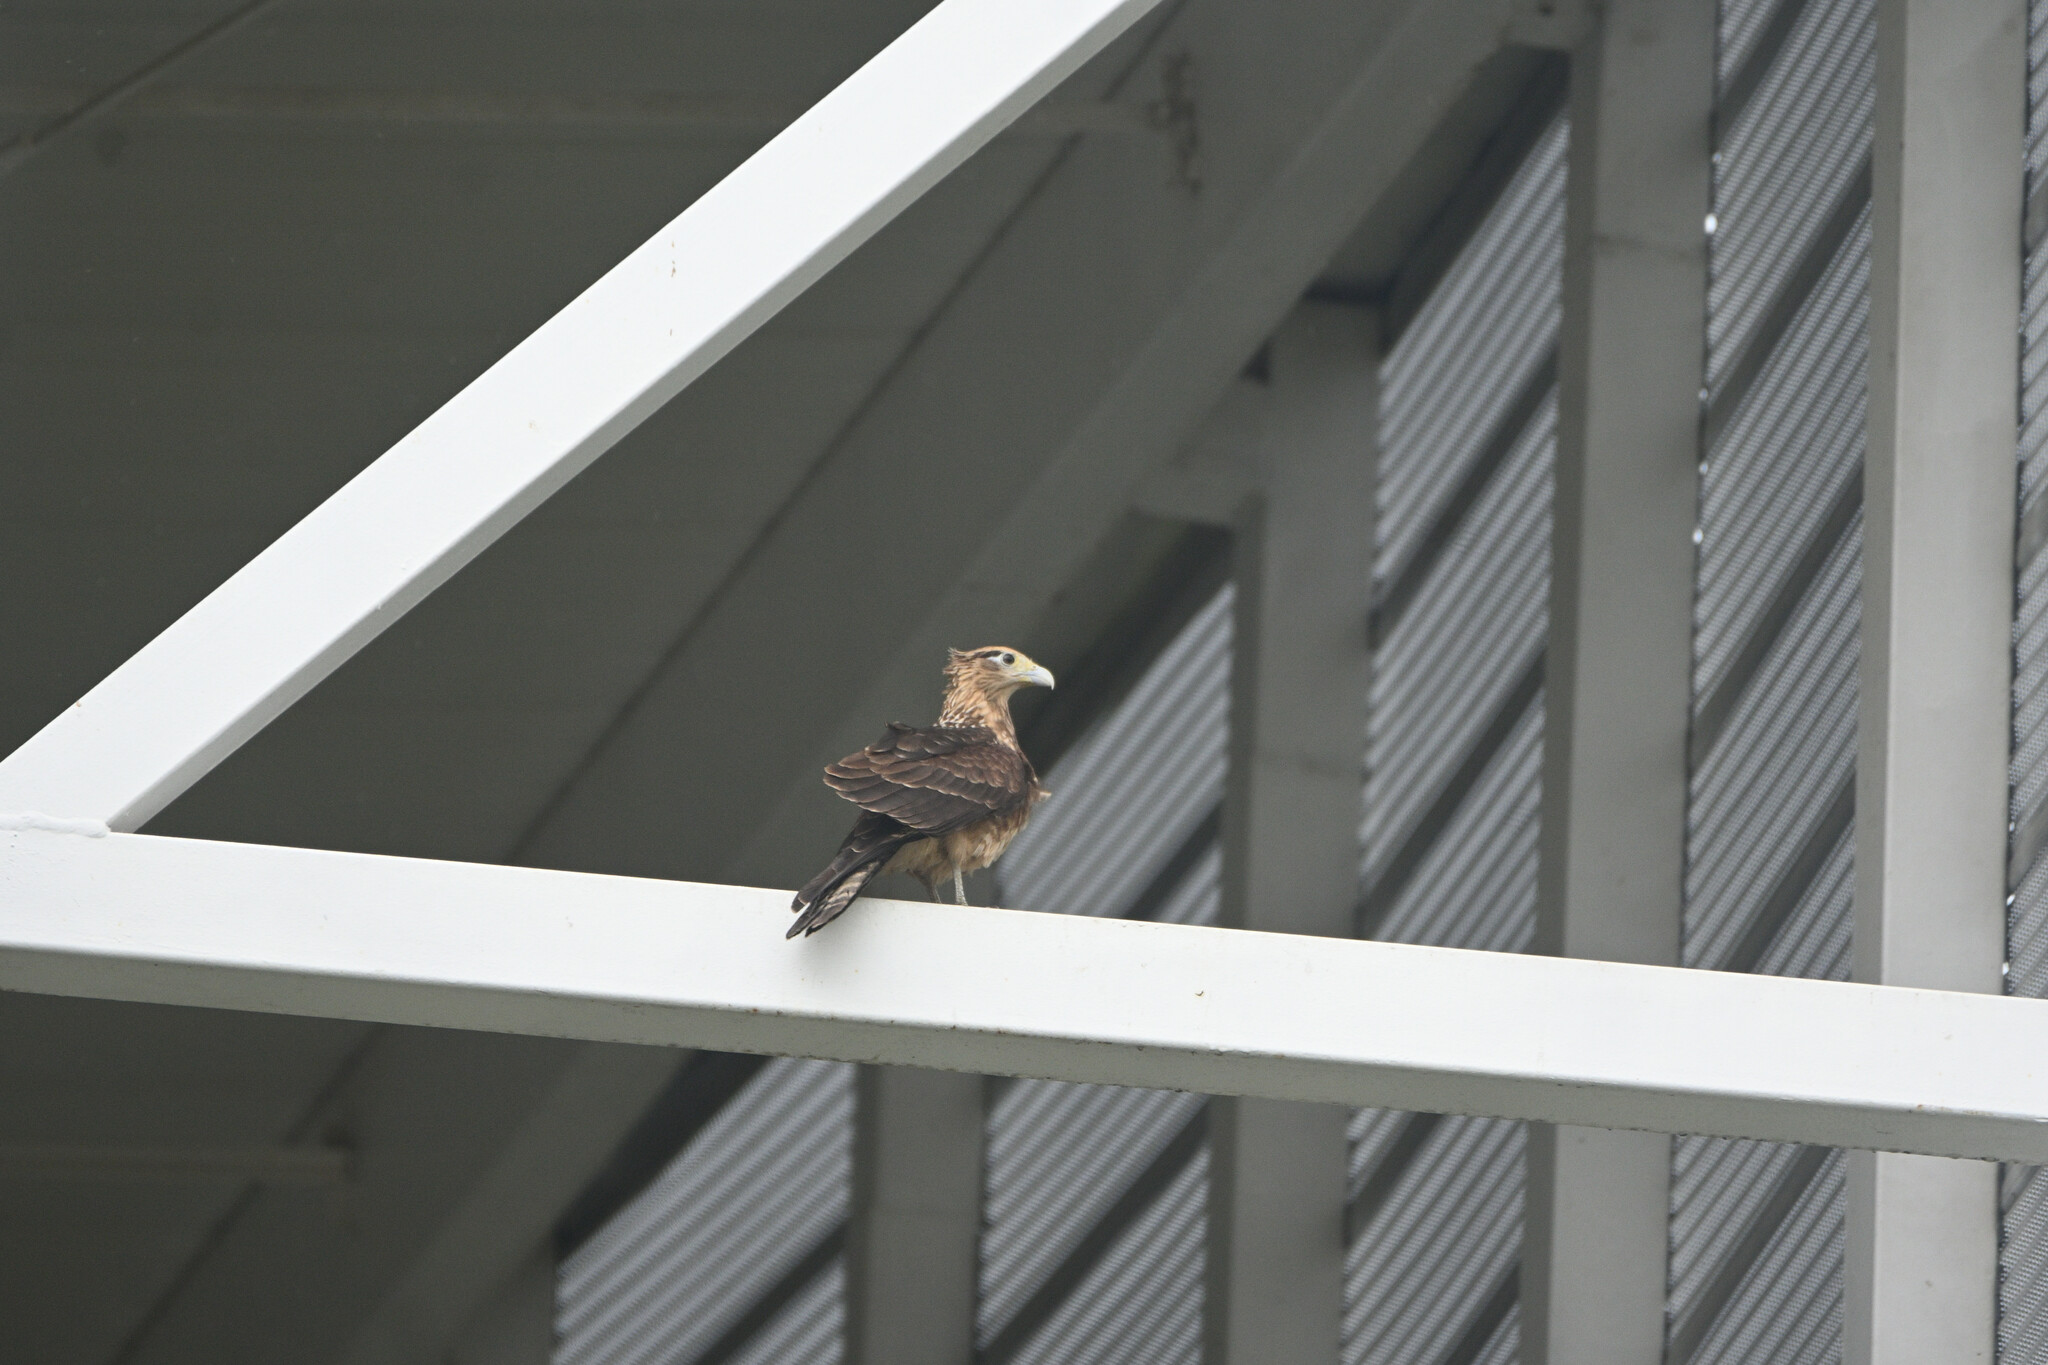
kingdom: Animalia
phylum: Chordata
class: Aves
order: Falconiformes
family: Falconidae
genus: Daptrius
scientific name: Daptrius
